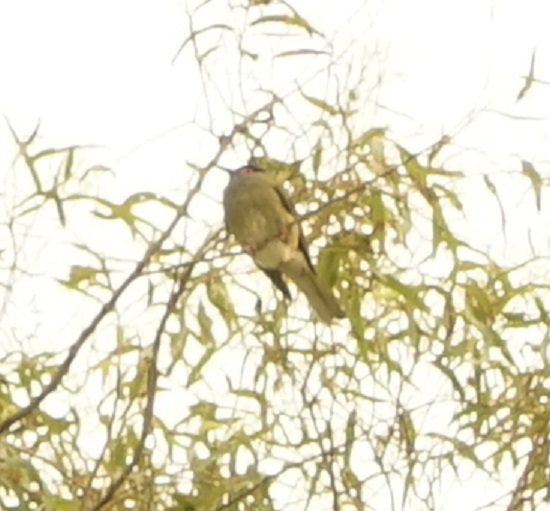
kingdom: Animalia
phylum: Chordata
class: Aves
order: Passeriformes
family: Oriolidae
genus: Sphecotheres
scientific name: Sphecotheres vieilloti
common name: Australasian figbird
